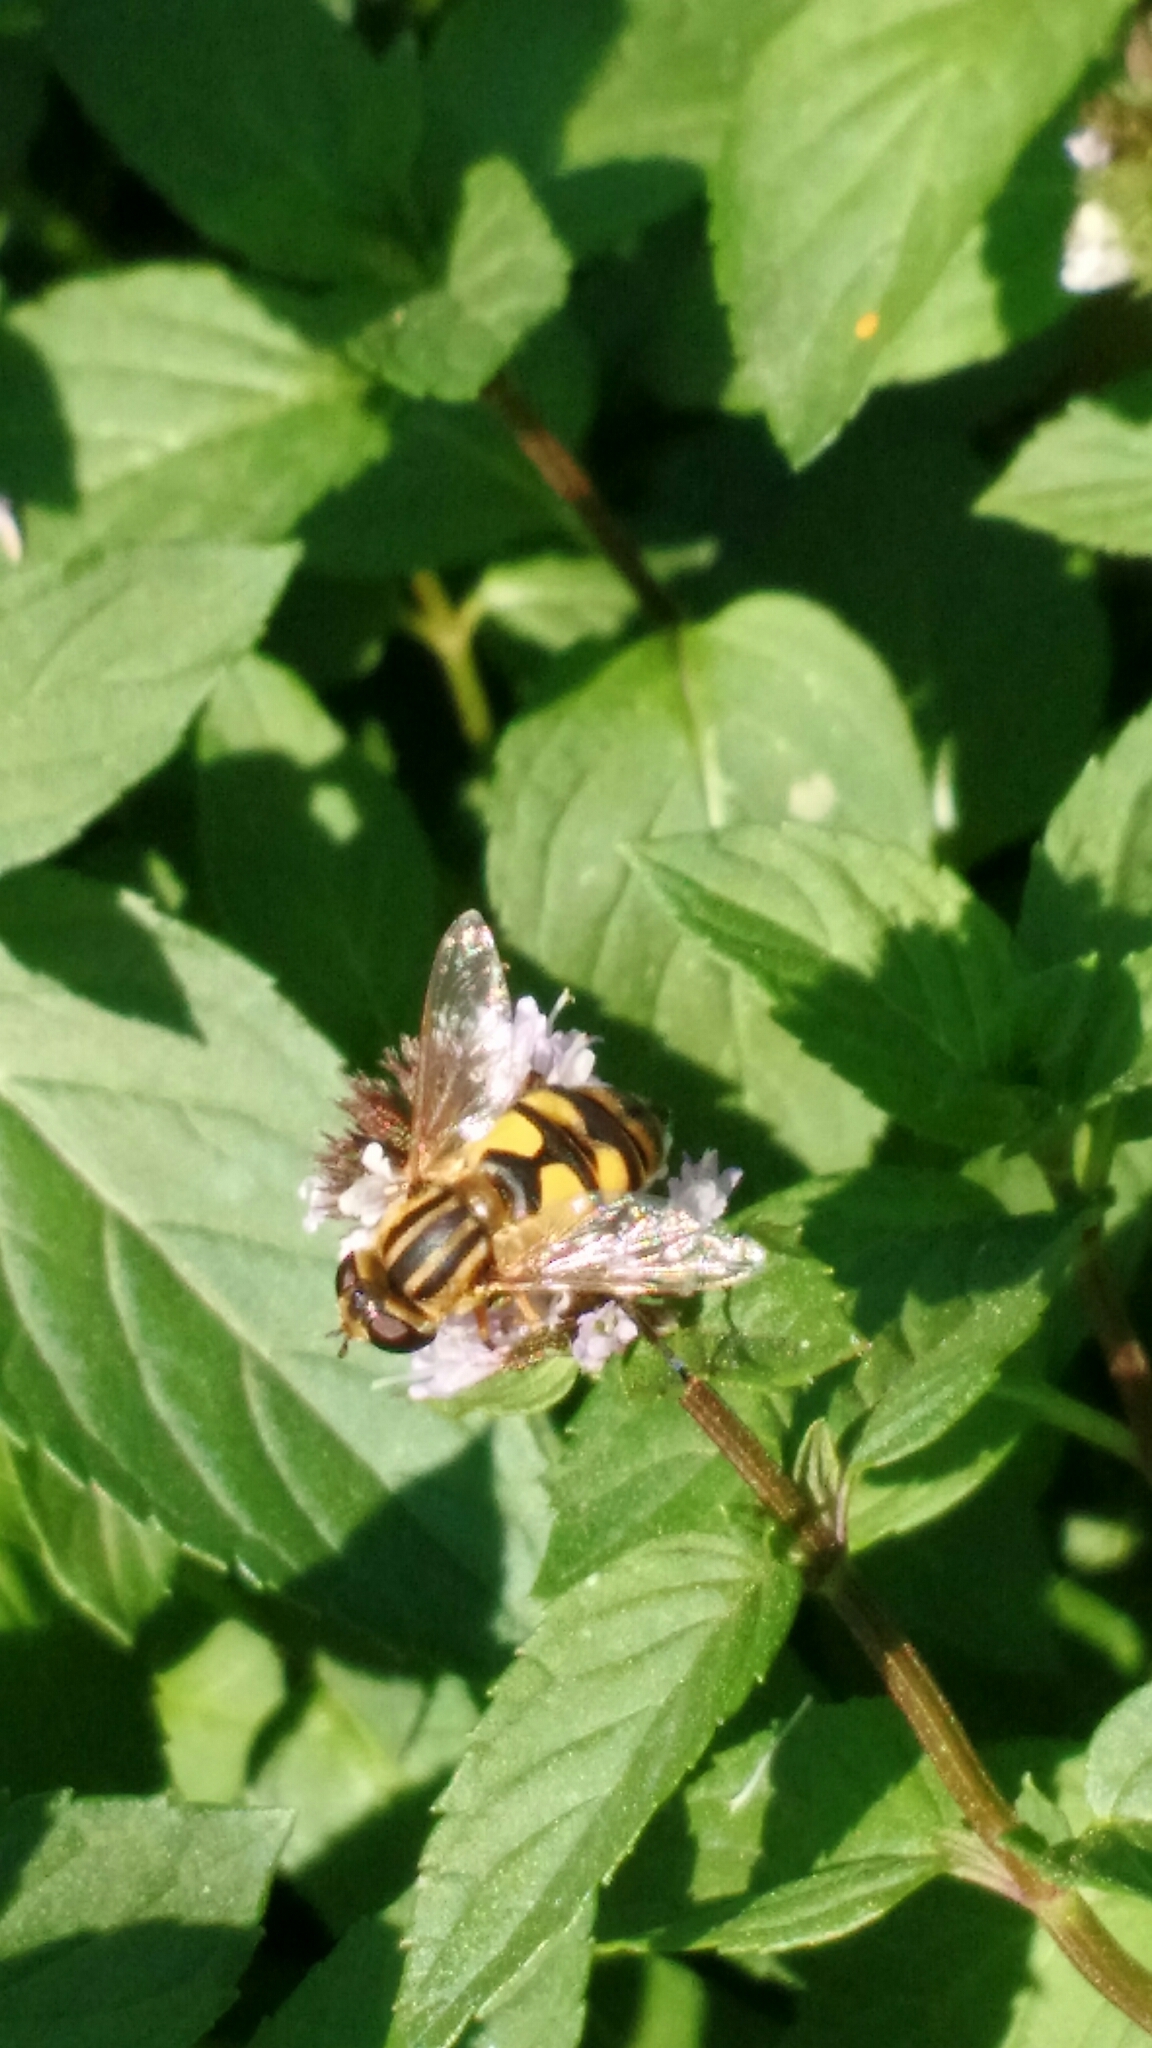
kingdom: Animalia
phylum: Arthropoda
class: Insecta
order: Diptera
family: Syrphidae
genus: Helophilus
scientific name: Helophilus latifrons
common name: Broad-headed marsh fly
